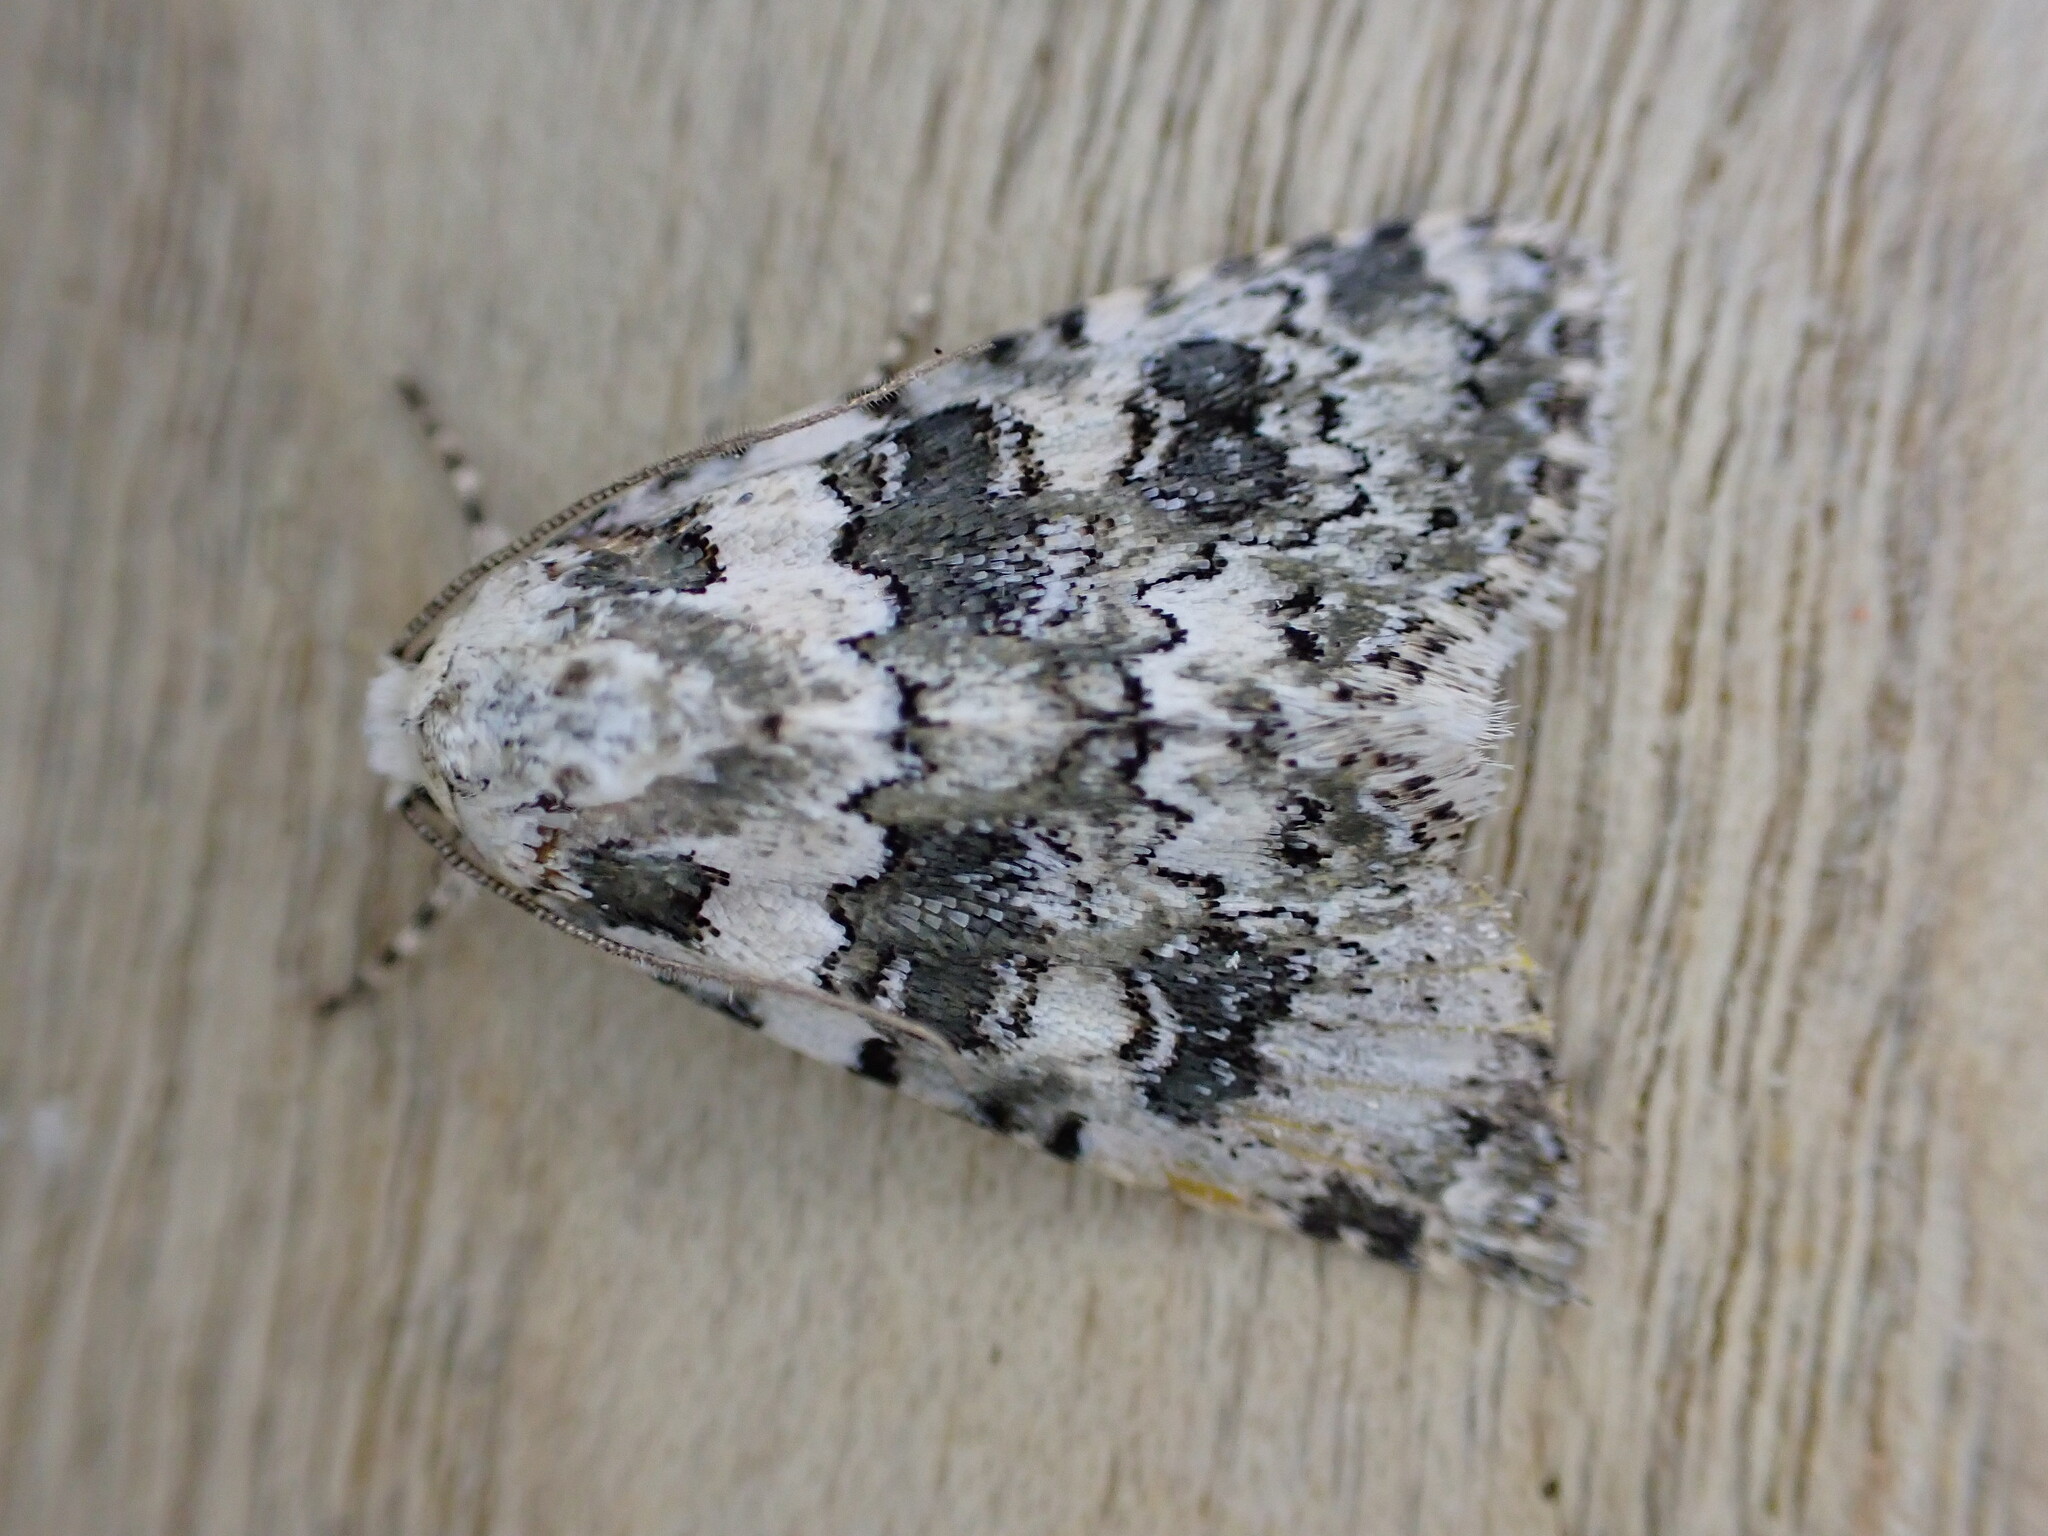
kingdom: Animalia
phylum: Arthropoda
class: Insecta
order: Lepidoptera
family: Noctuidae
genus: Bryophila
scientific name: Bryophila domestica
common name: Marbled beauty
